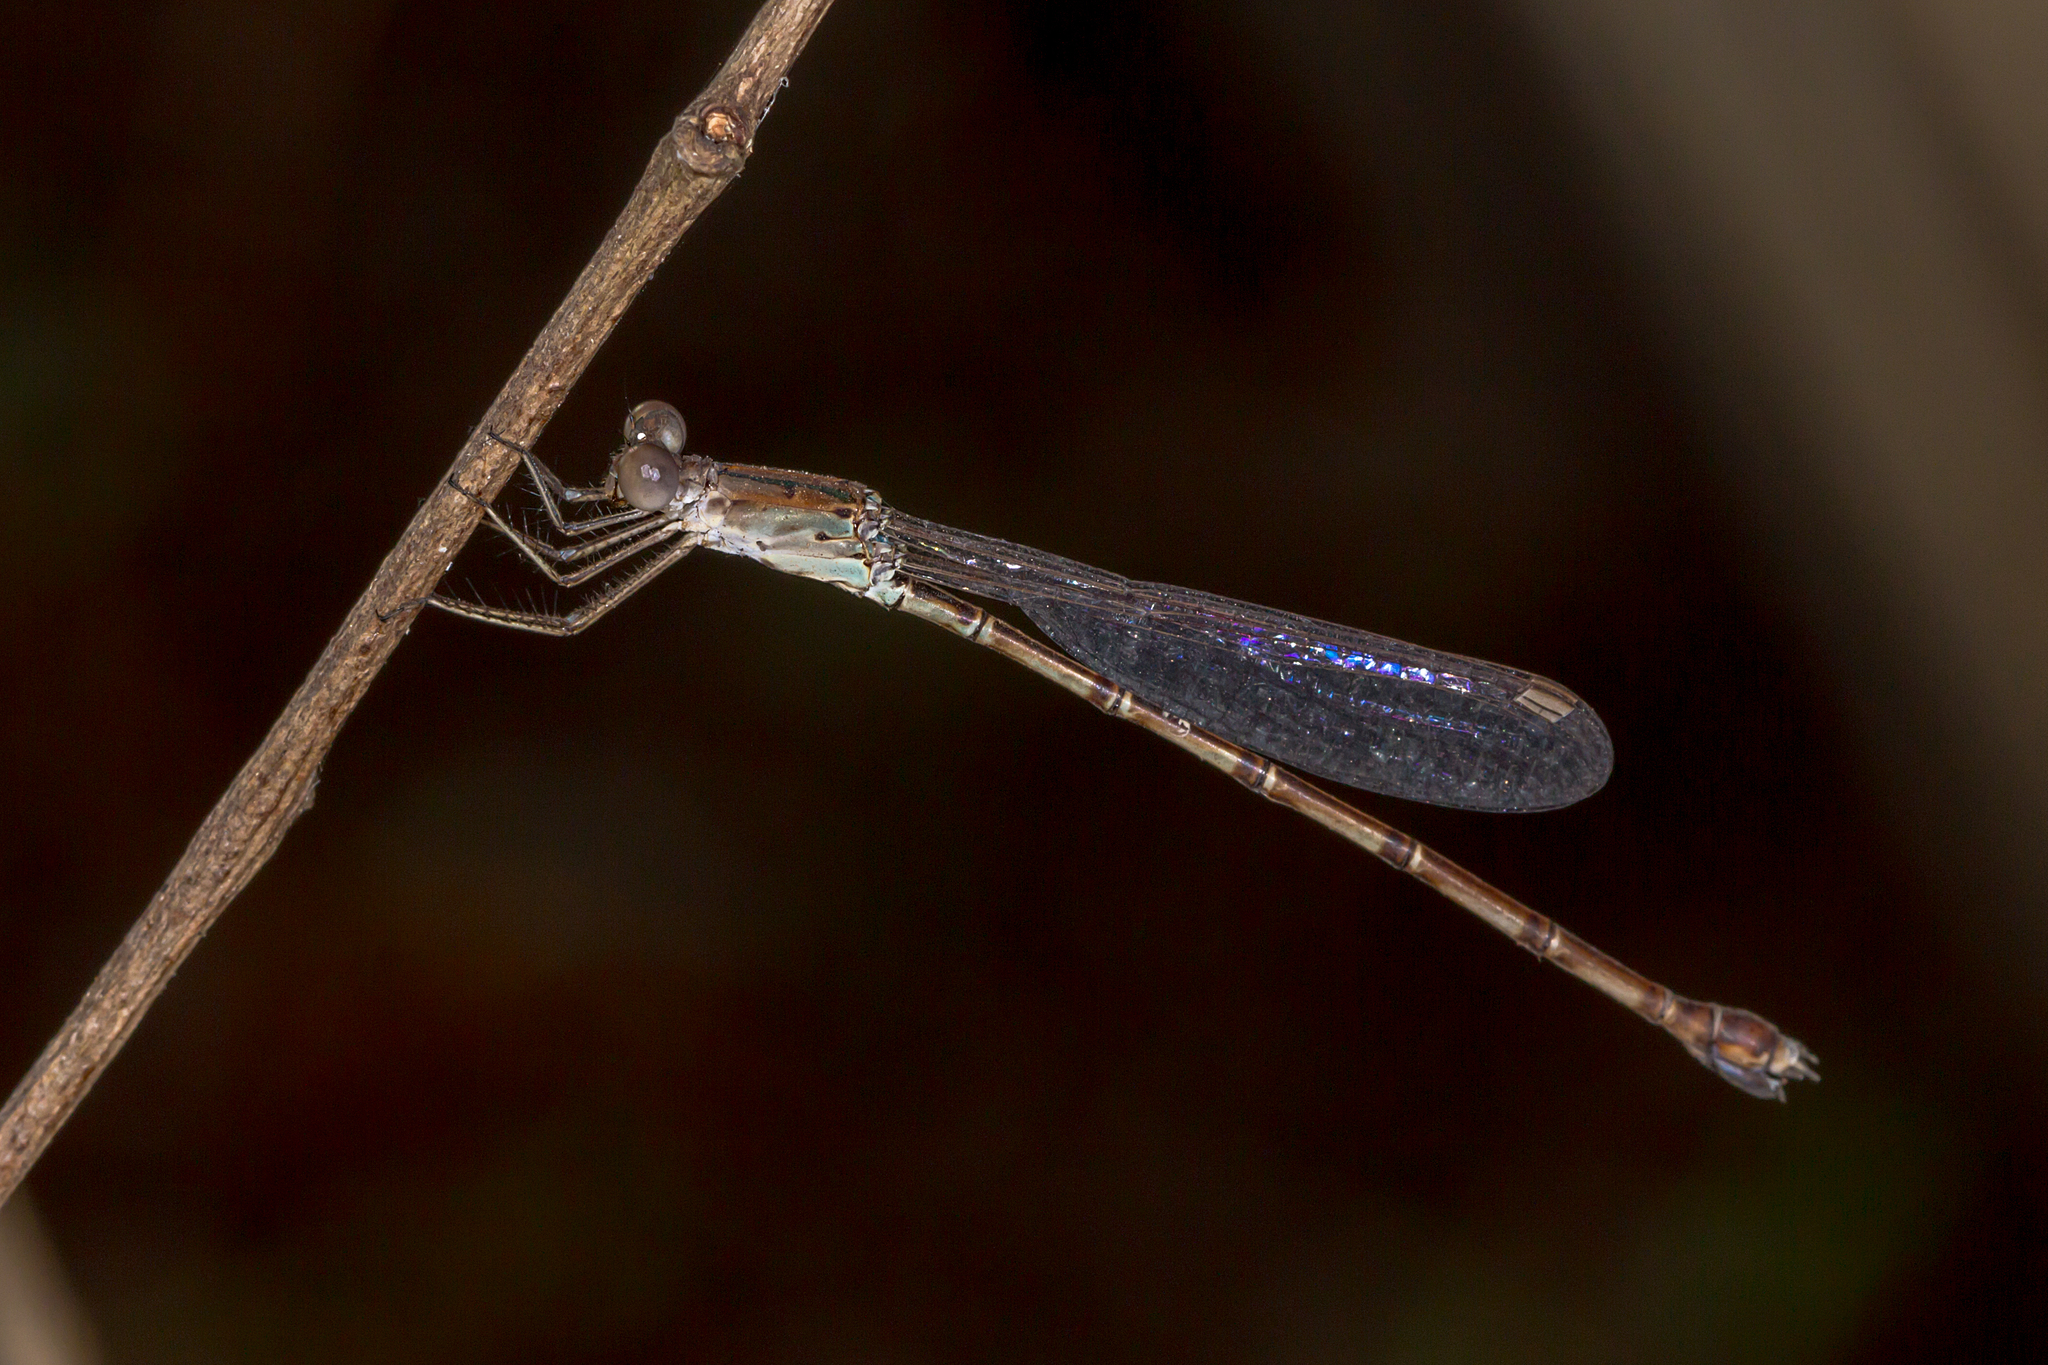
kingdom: Animalia
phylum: Arthropoda
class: Insecta
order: Odonata
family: Lestidae
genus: Indolestes
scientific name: Indolestes tenuissimus
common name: Slender reedling
